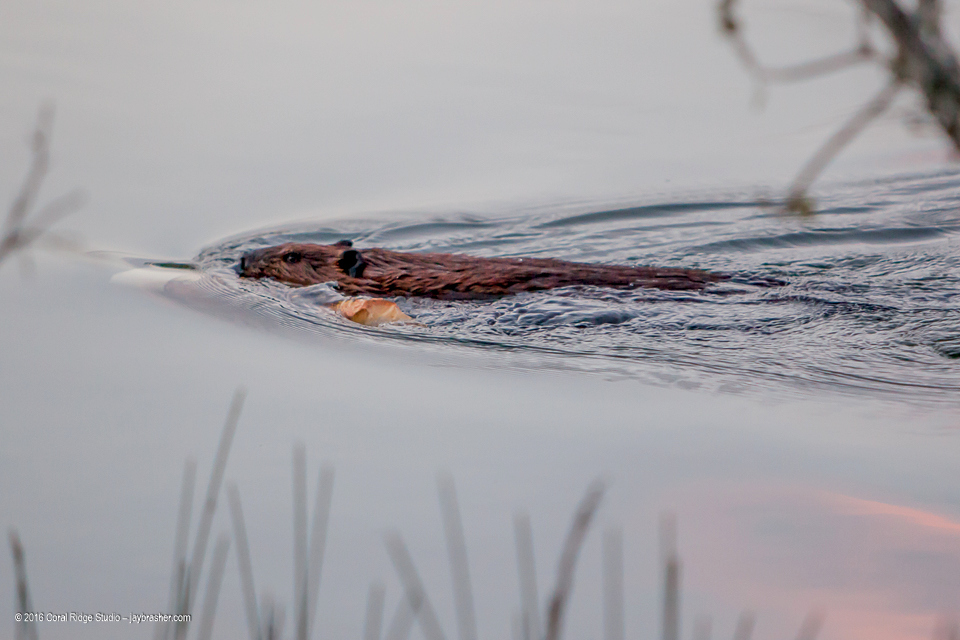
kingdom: Animalia
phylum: Chordata
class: Mammalia
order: Rodentia
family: Castoridae
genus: Castor
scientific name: Castor canadensis
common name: American beaver
